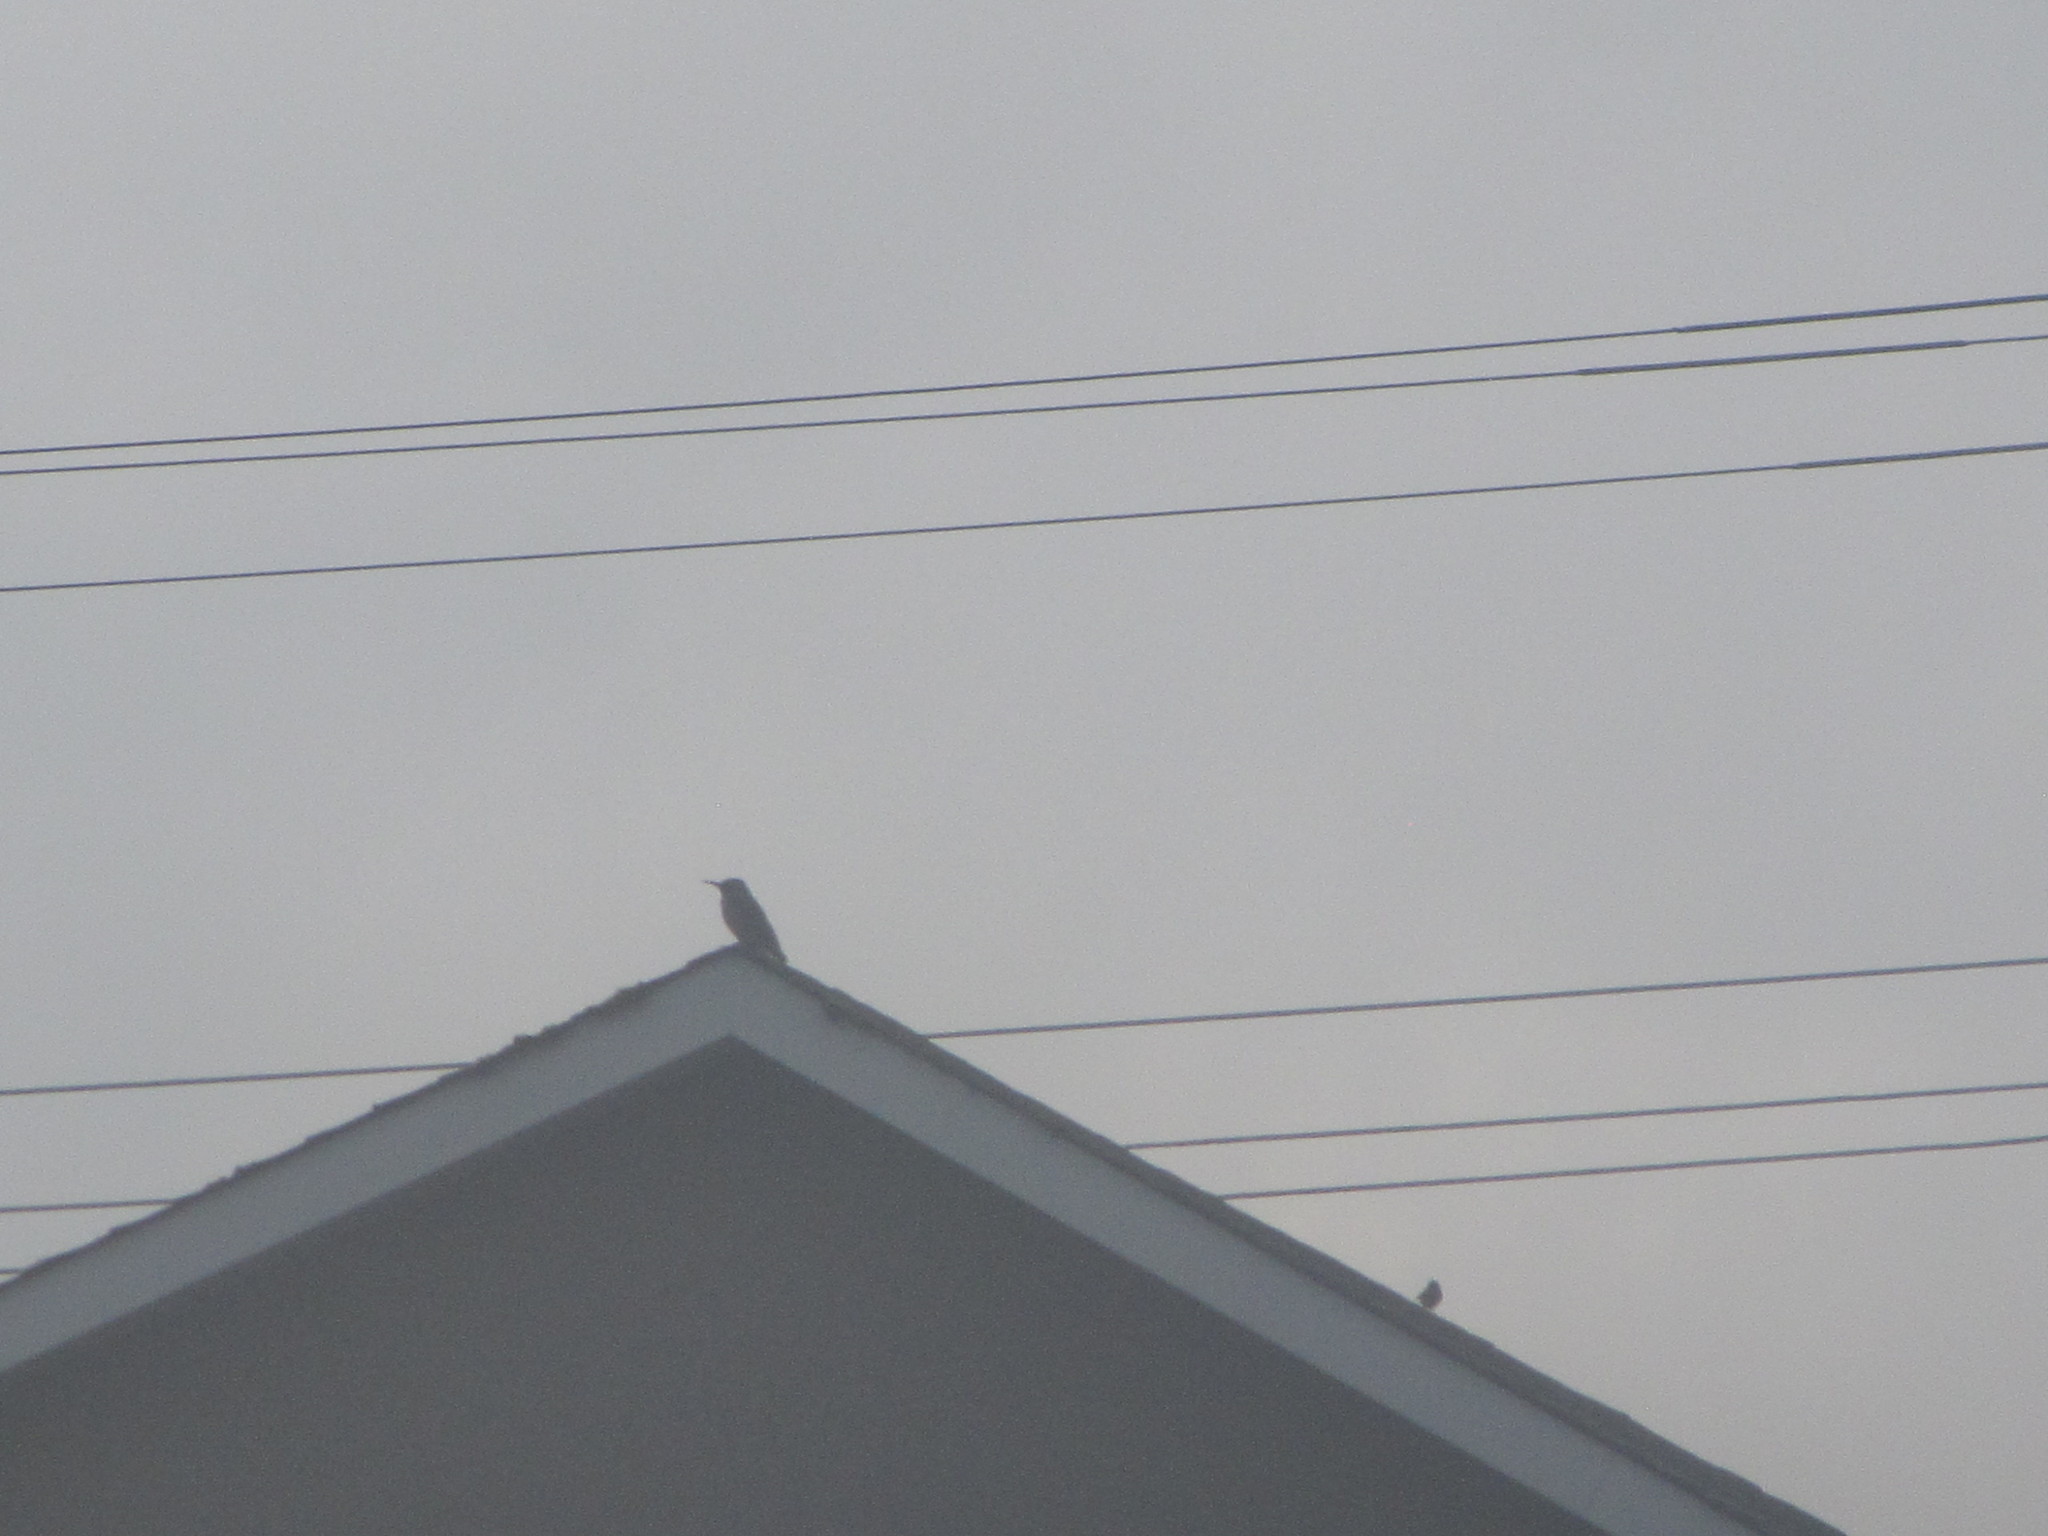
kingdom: Animalia
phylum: Chordata
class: Aves
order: Piciformes
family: Picidae
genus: Colaptes
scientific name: Colaptes auratus
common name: Northern flicker
